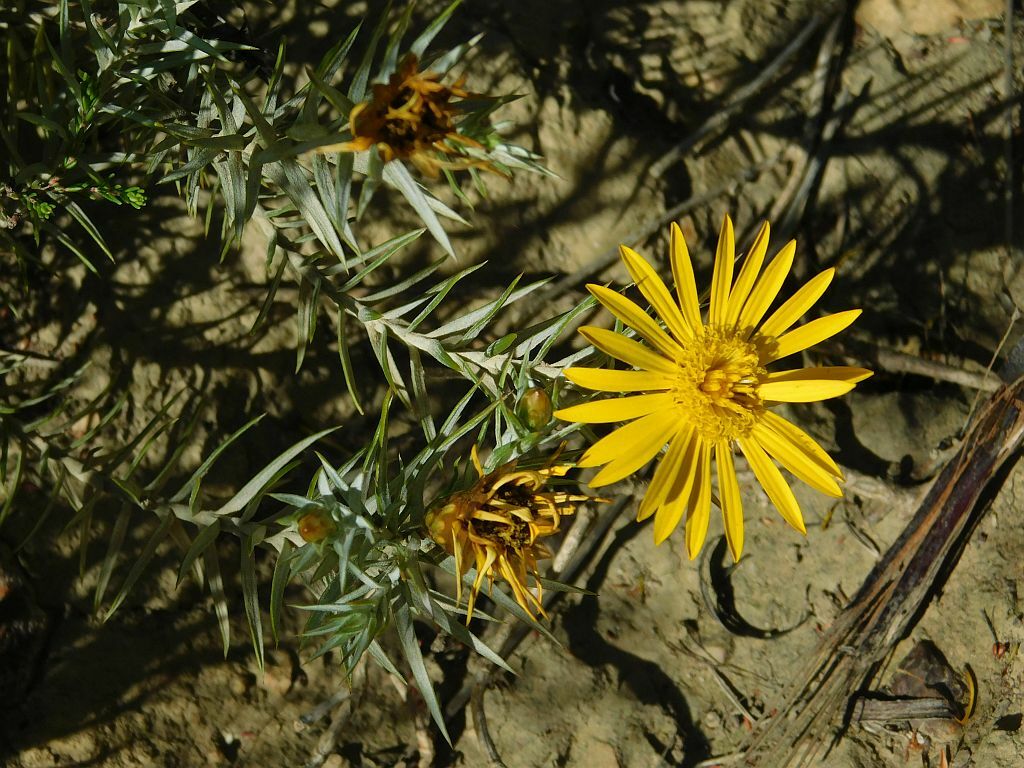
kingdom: Plantae
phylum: Tracheophyta
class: Magnoliopsida
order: Asterales
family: Asteraceae
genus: Oedera
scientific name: Oedera pungens
